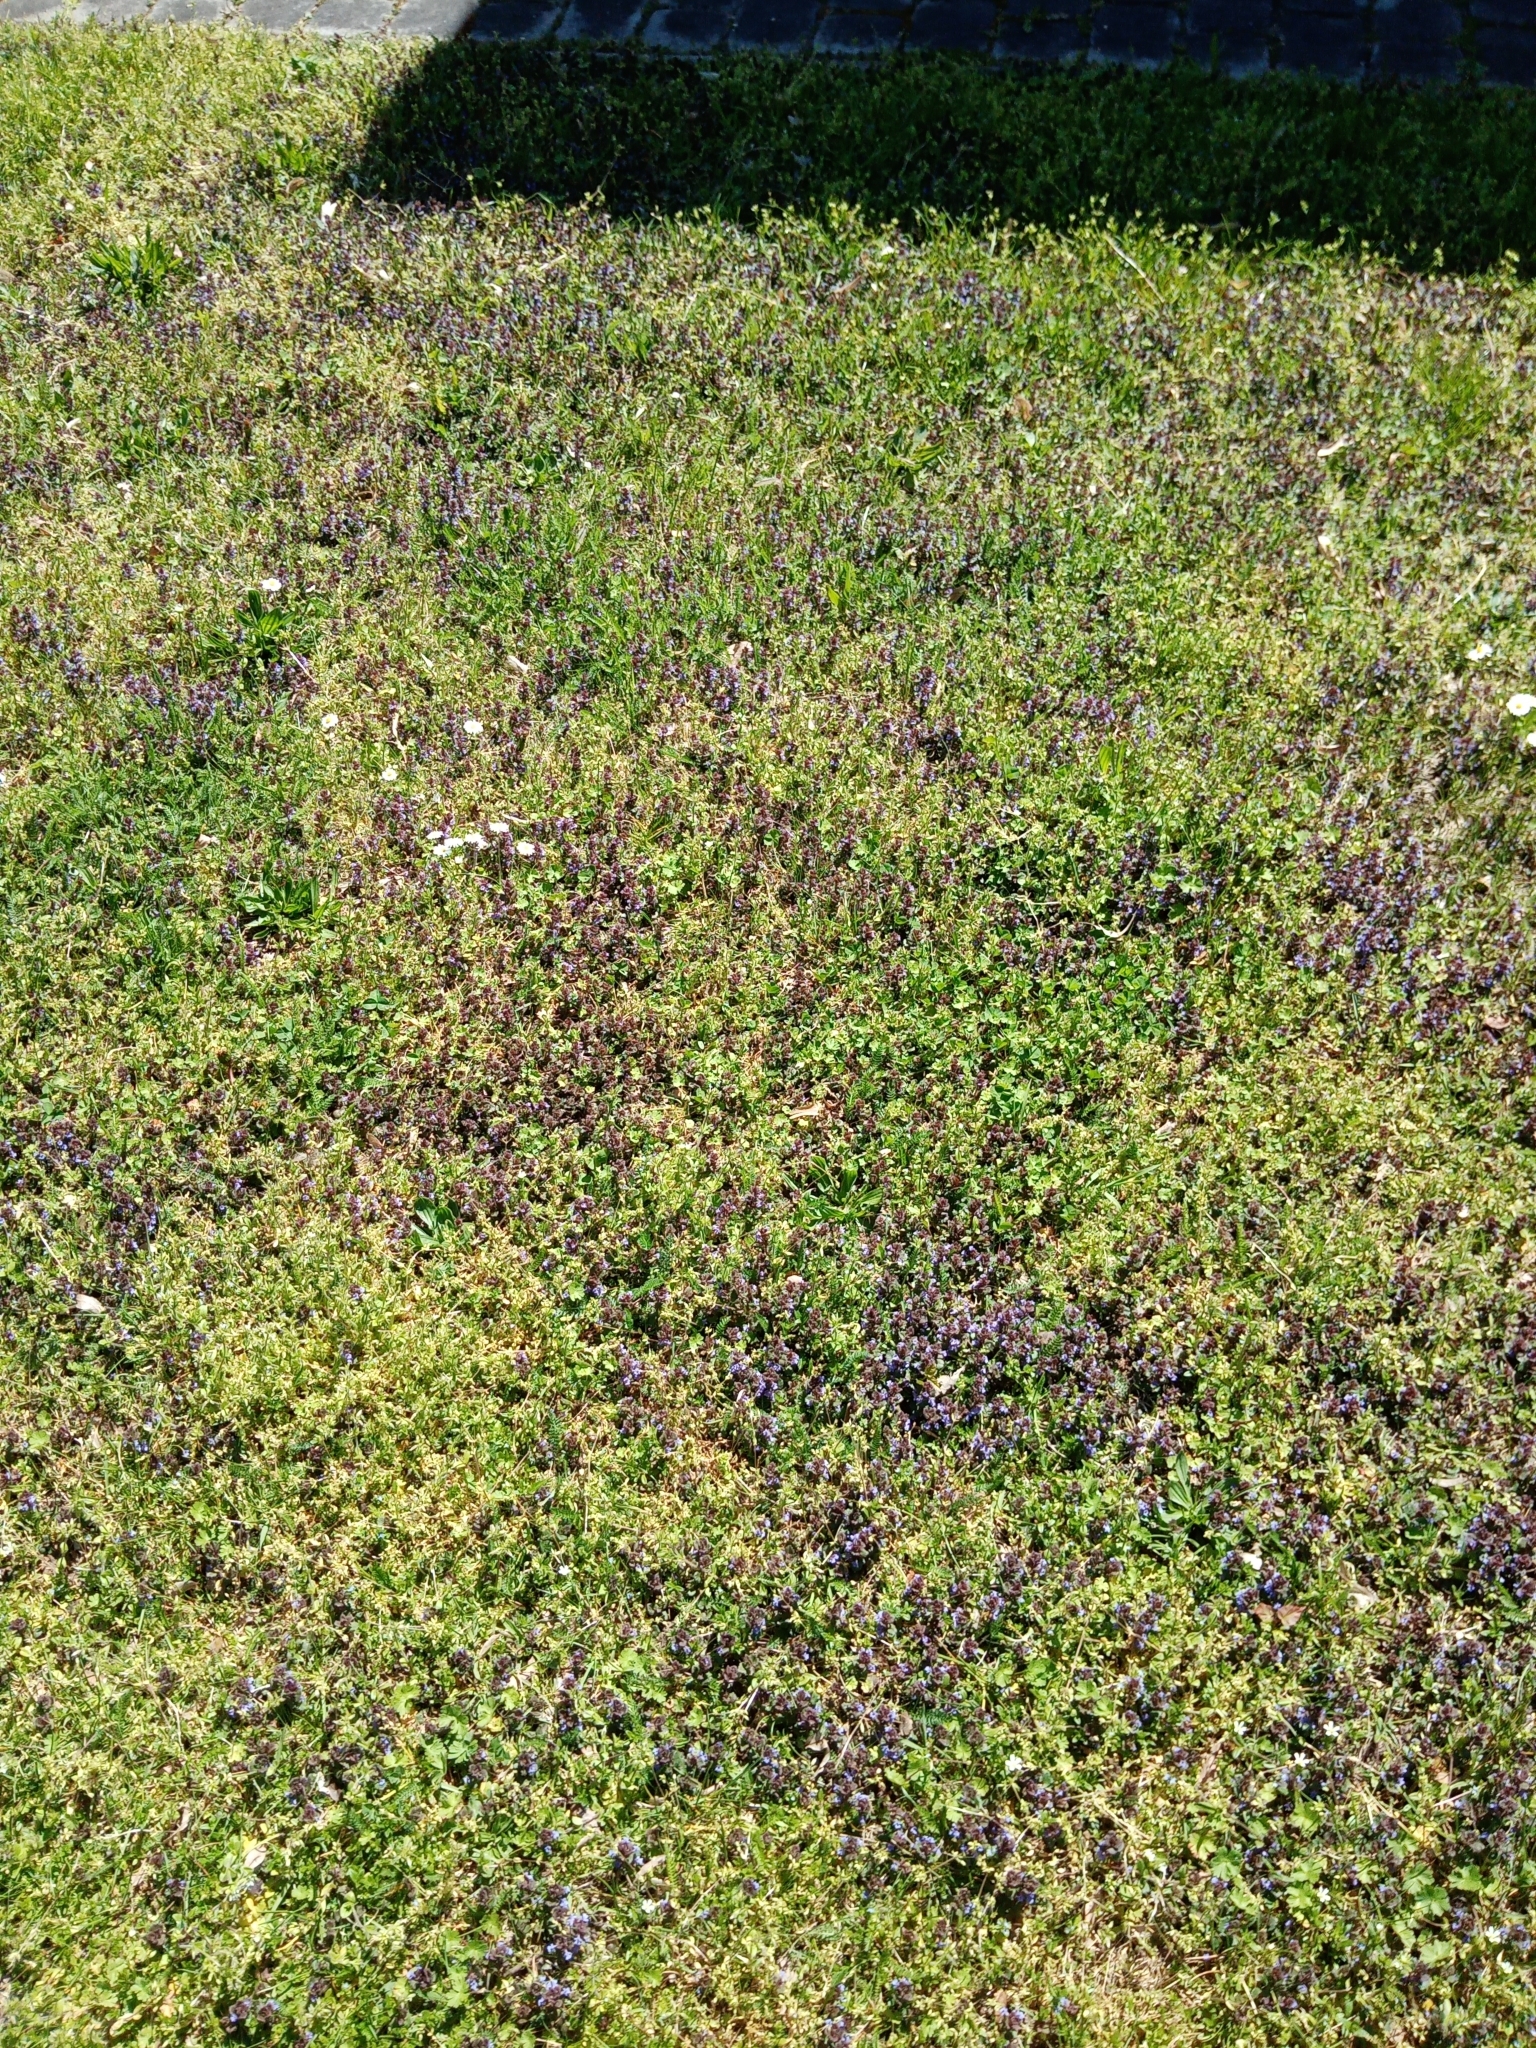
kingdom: Plantae
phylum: Tracheophyta
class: Magnoliopsida
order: Lamiales
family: Lamiaceae
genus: Glechoma
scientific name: Glechoma hederacea
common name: Ground ivy
